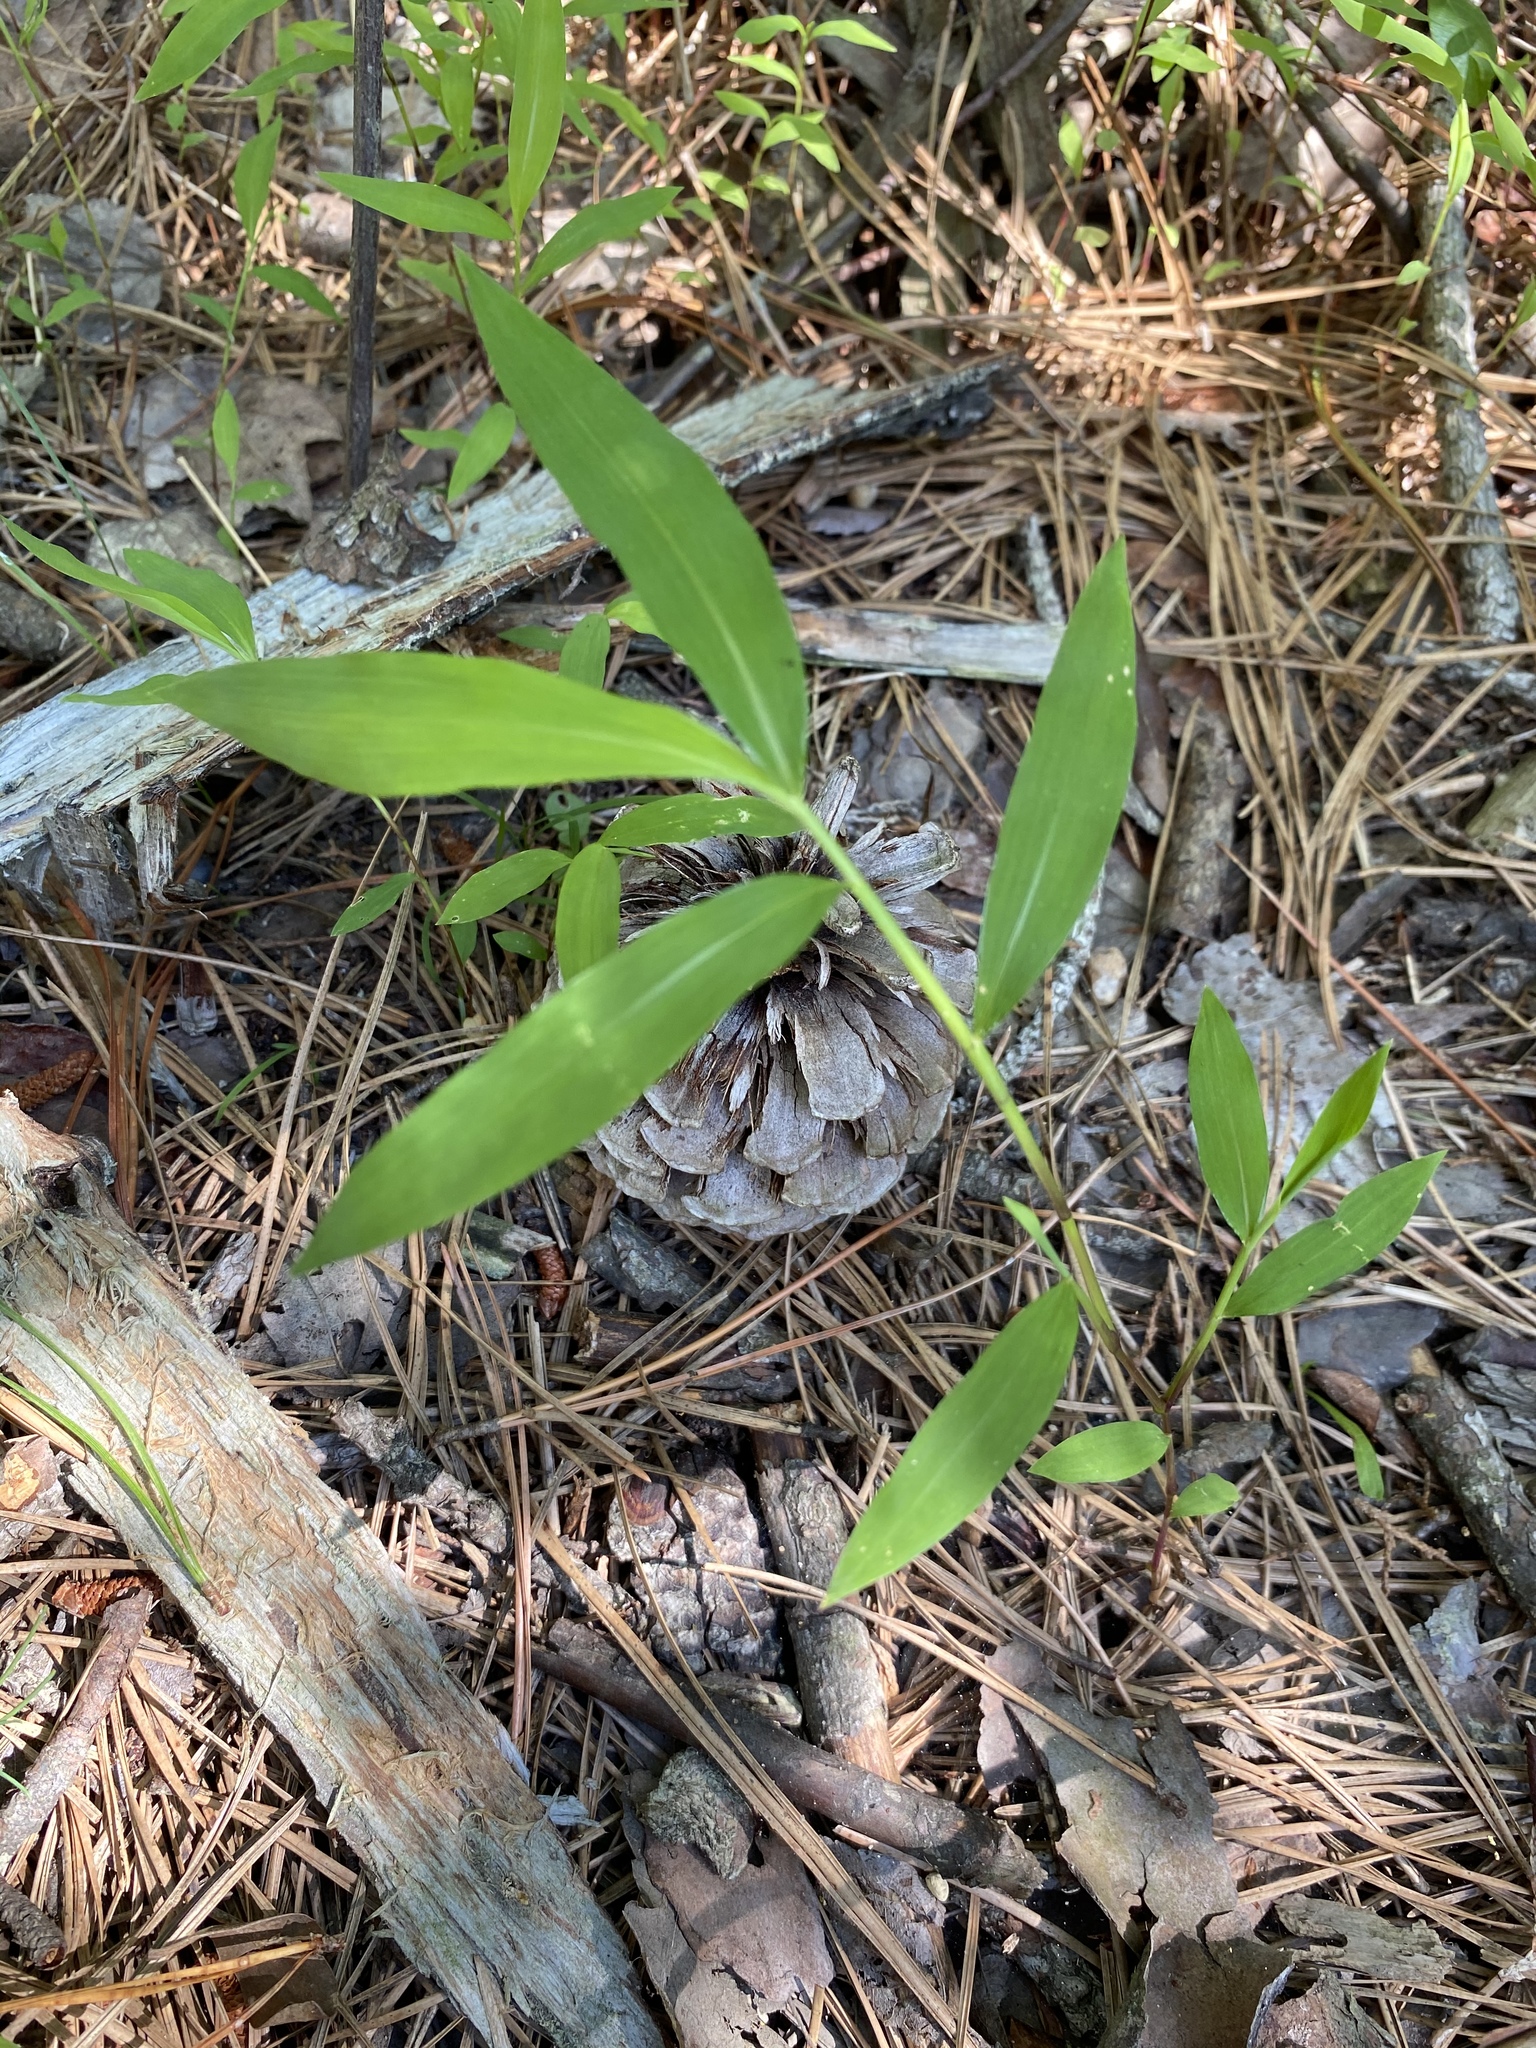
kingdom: Plantae
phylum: Tracheophyta
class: Liliopsida
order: Poales
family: Poaceae
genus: Microstegium
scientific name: Microstegium vimineum
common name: Japanese stiltgrass
